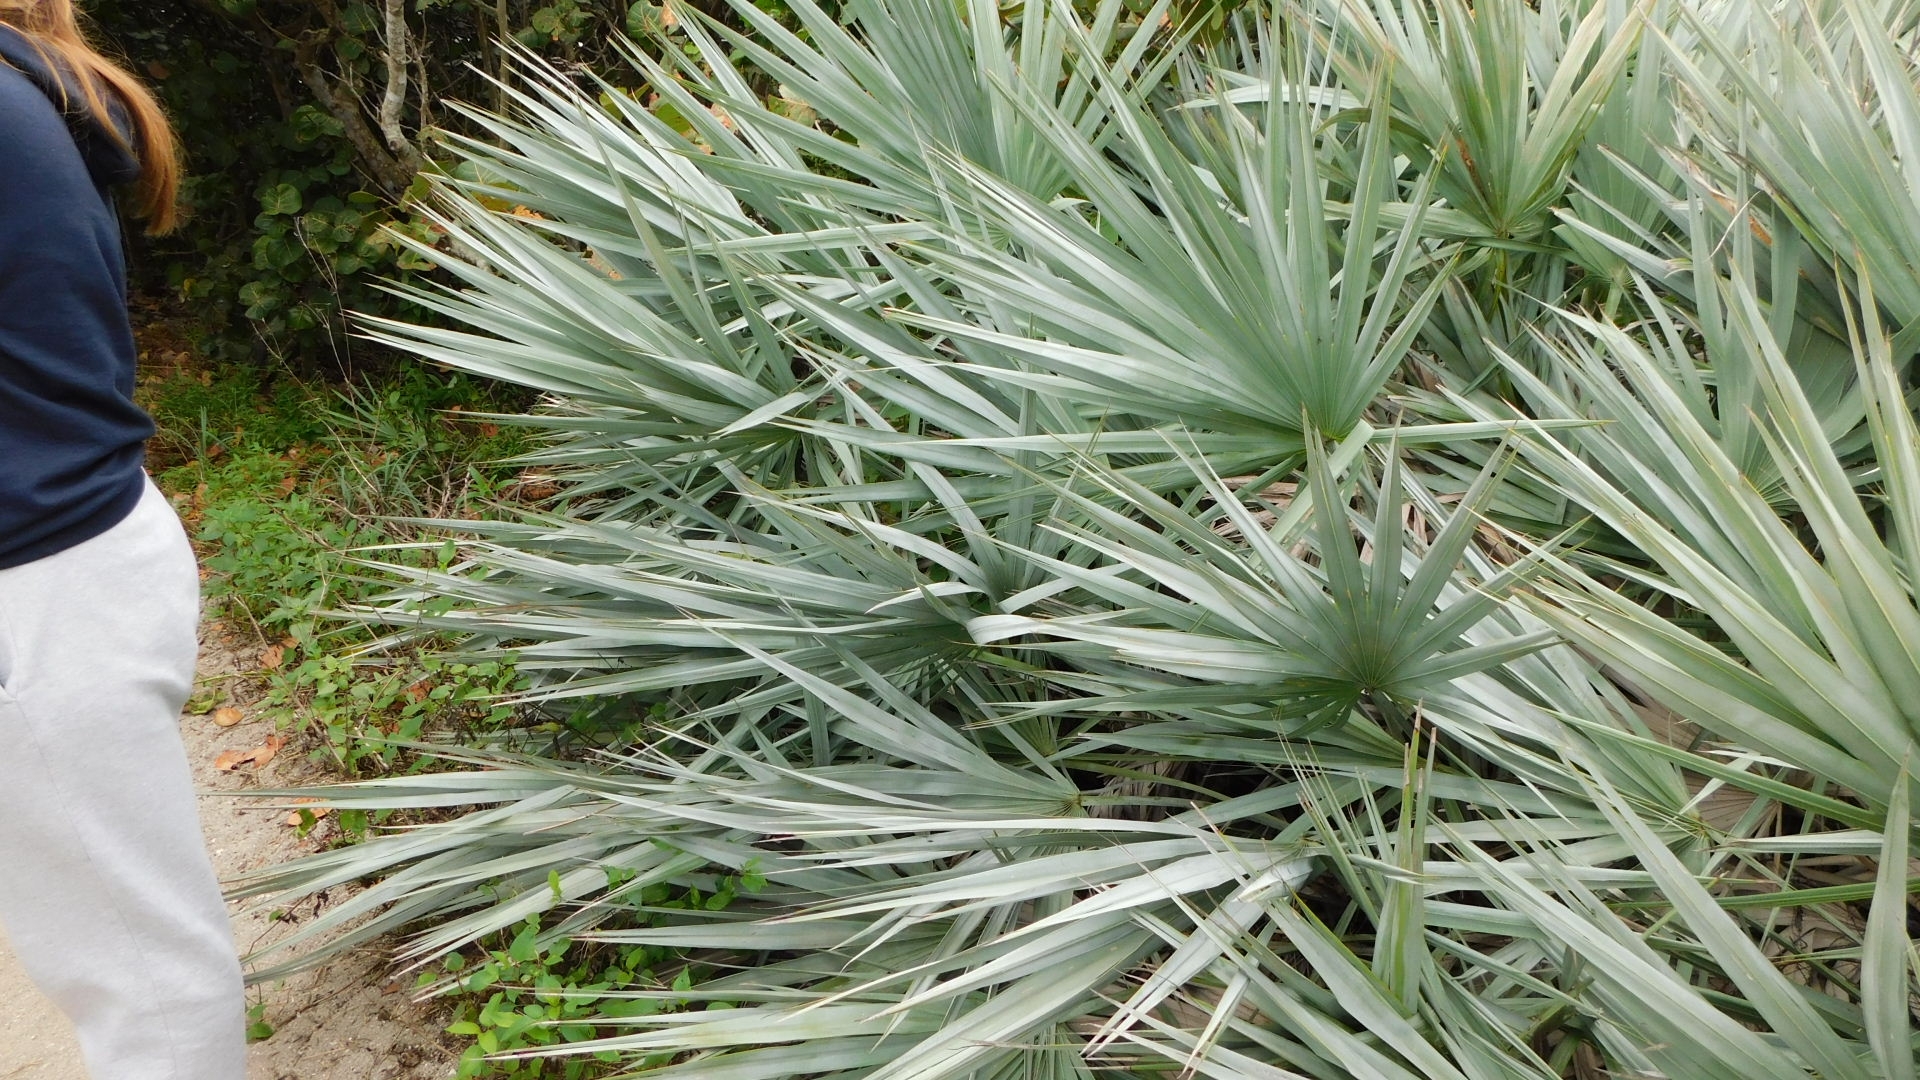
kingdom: Plantae
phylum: Tracheophyta
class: Liliopsida
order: Arecales
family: Arecaceae
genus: Serenoa
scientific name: Serenoa repens
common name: Saw-palmetto
